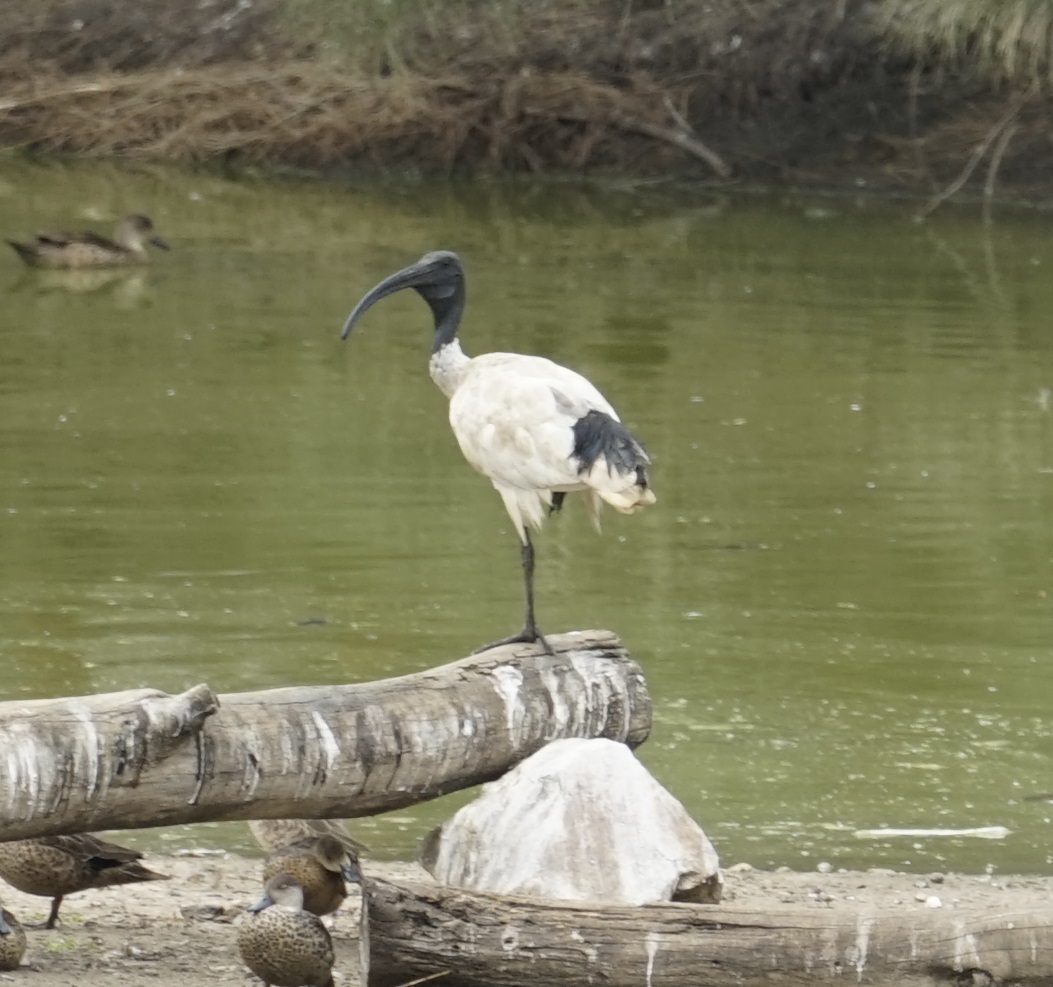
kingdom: Animalia
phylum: Chordata
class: Aves
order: Pelecaniformes
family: Threskiornithidae
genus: Threskiornis
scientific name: Threskiornis molucca
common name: Australian white ibis
